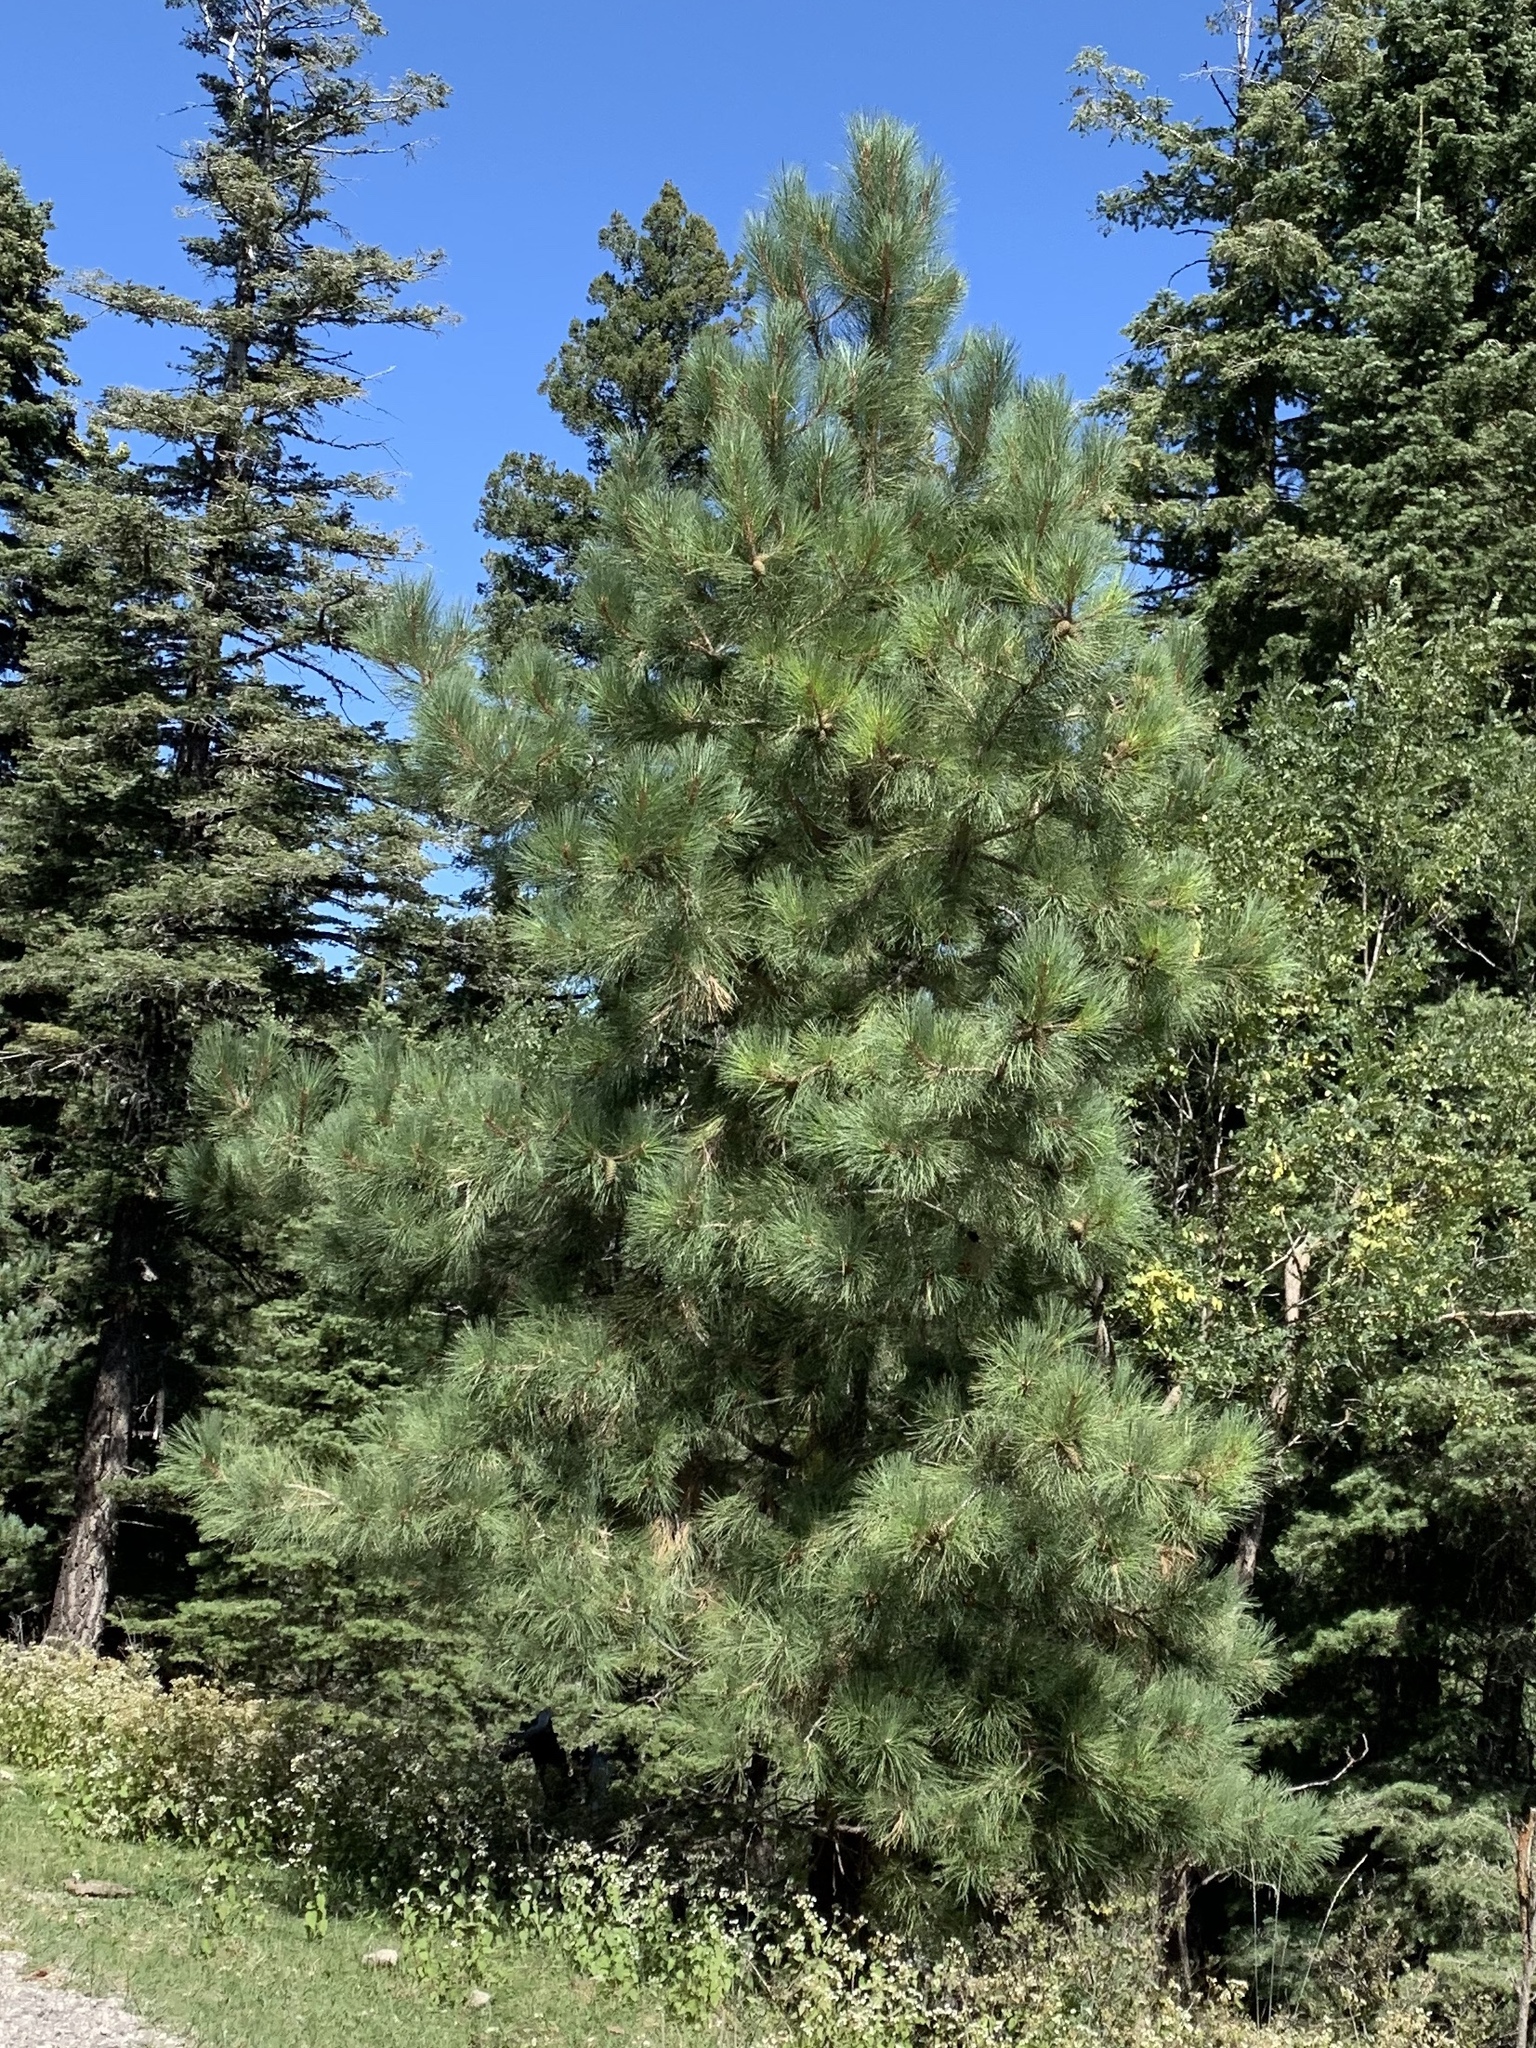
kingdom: Plantae
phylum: Tracheophyta
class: Pinopsida
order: Pinales
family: Pinaceae
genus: Pinus
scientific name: Pinus ponderosa
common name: Western yellow-pine
